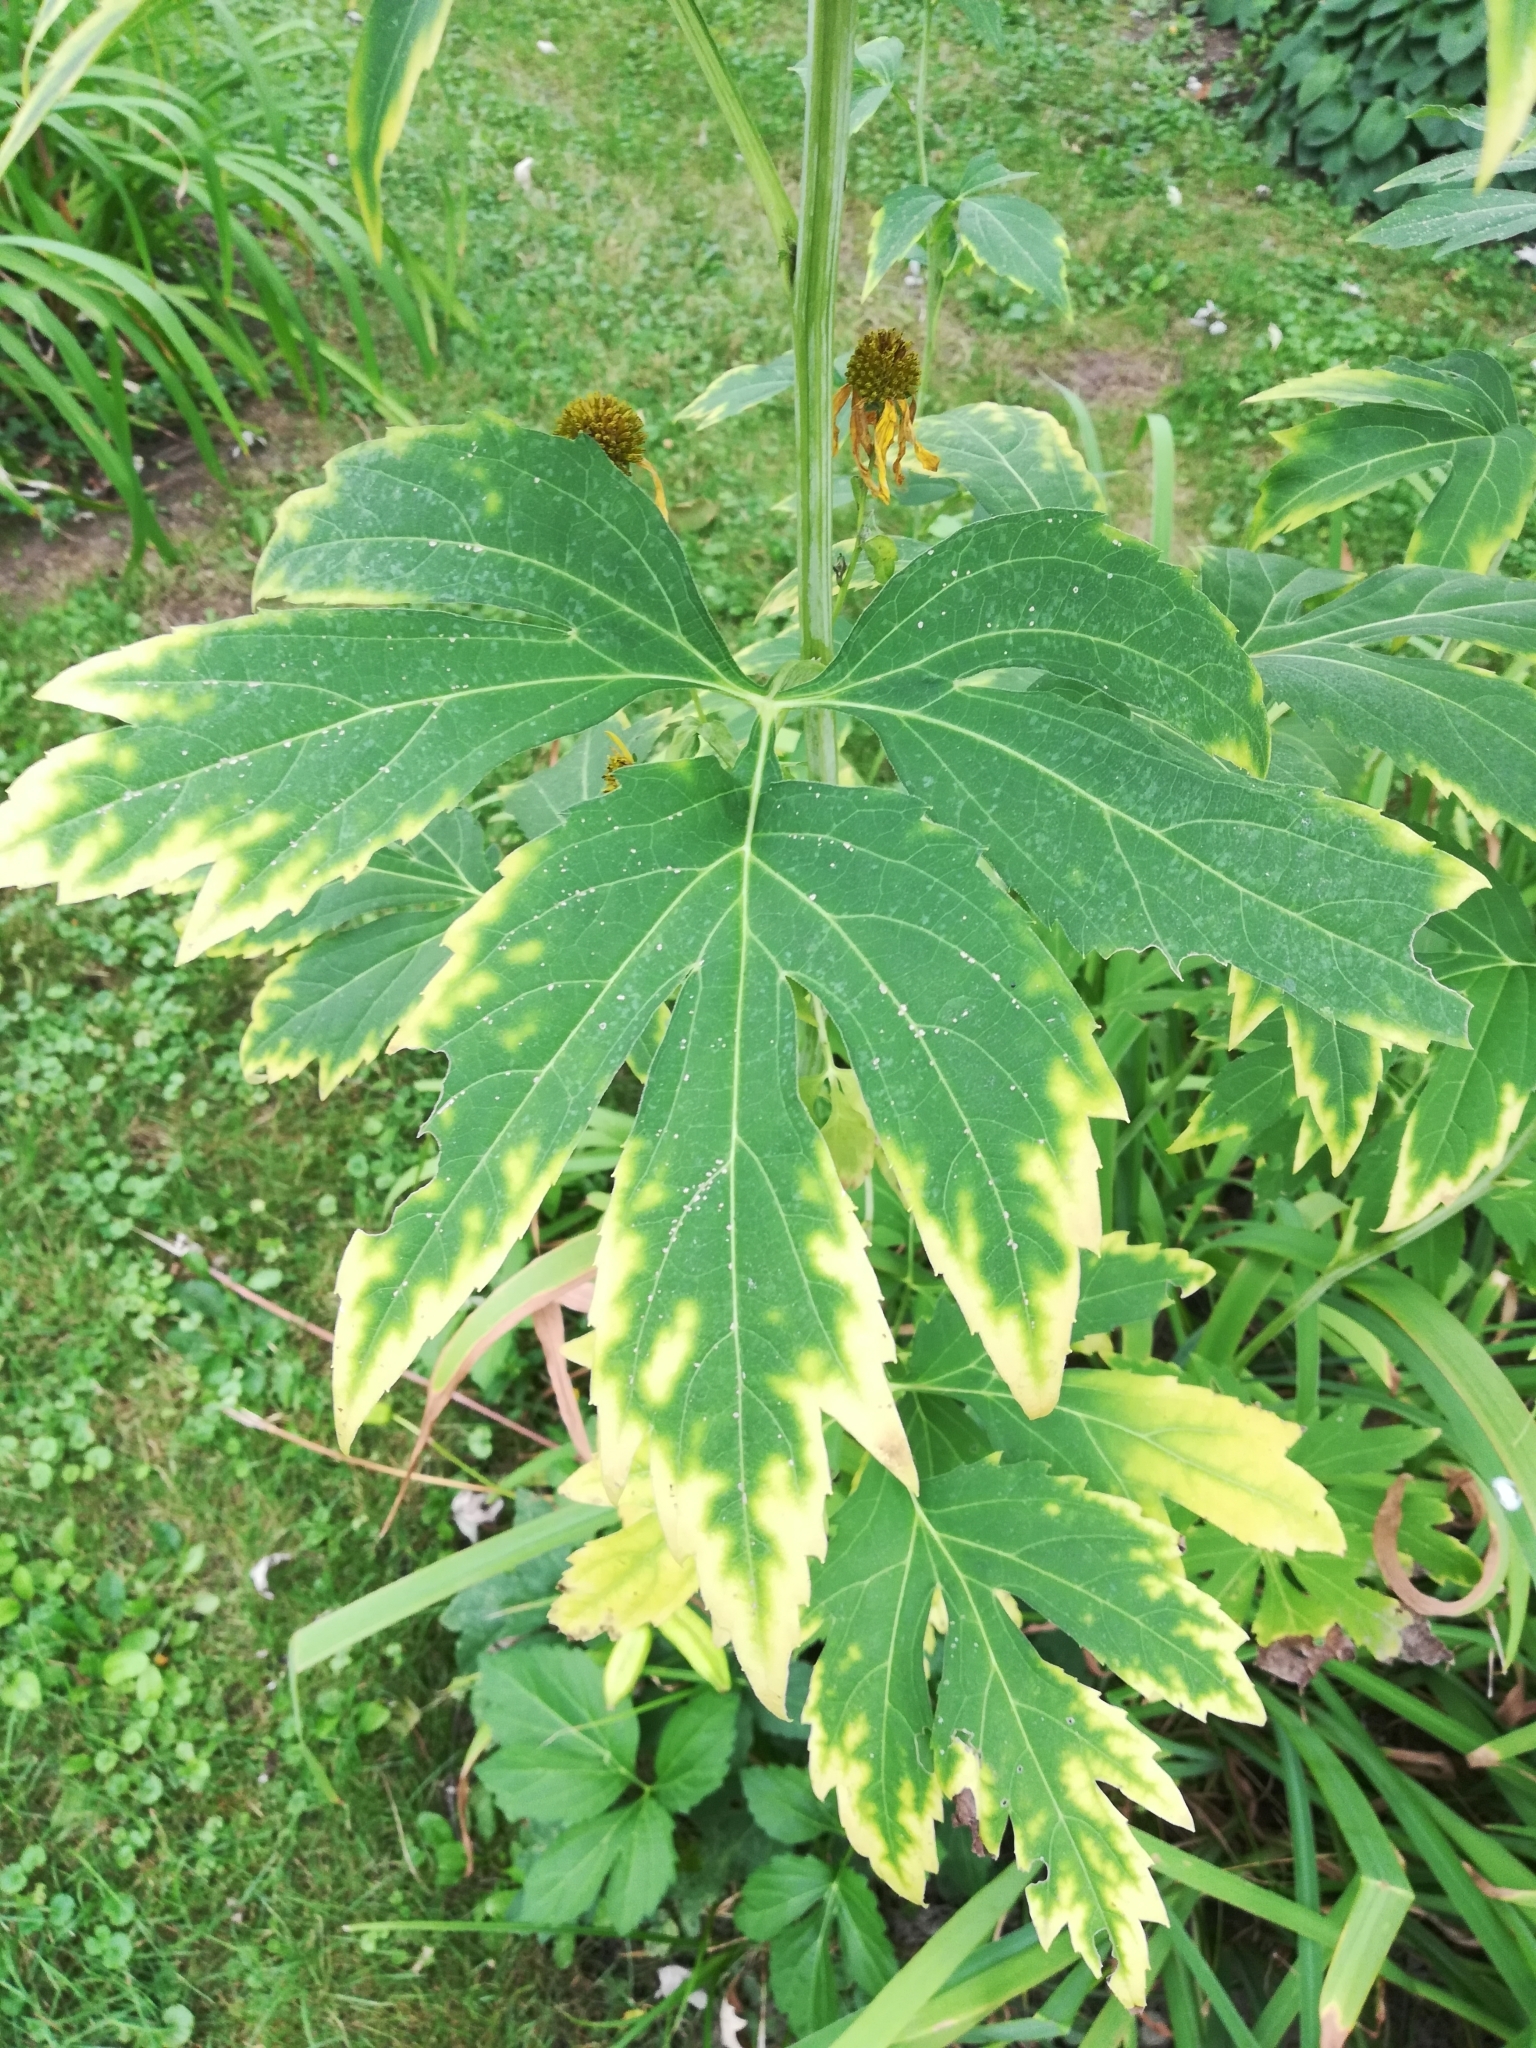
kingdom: Plantae
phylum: Tracheophyta
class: Magnoliopsida
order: Asterales
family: Asteraceae
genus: Rudbeckia
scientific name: Rudbeckia laciniata
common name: Coneflower
